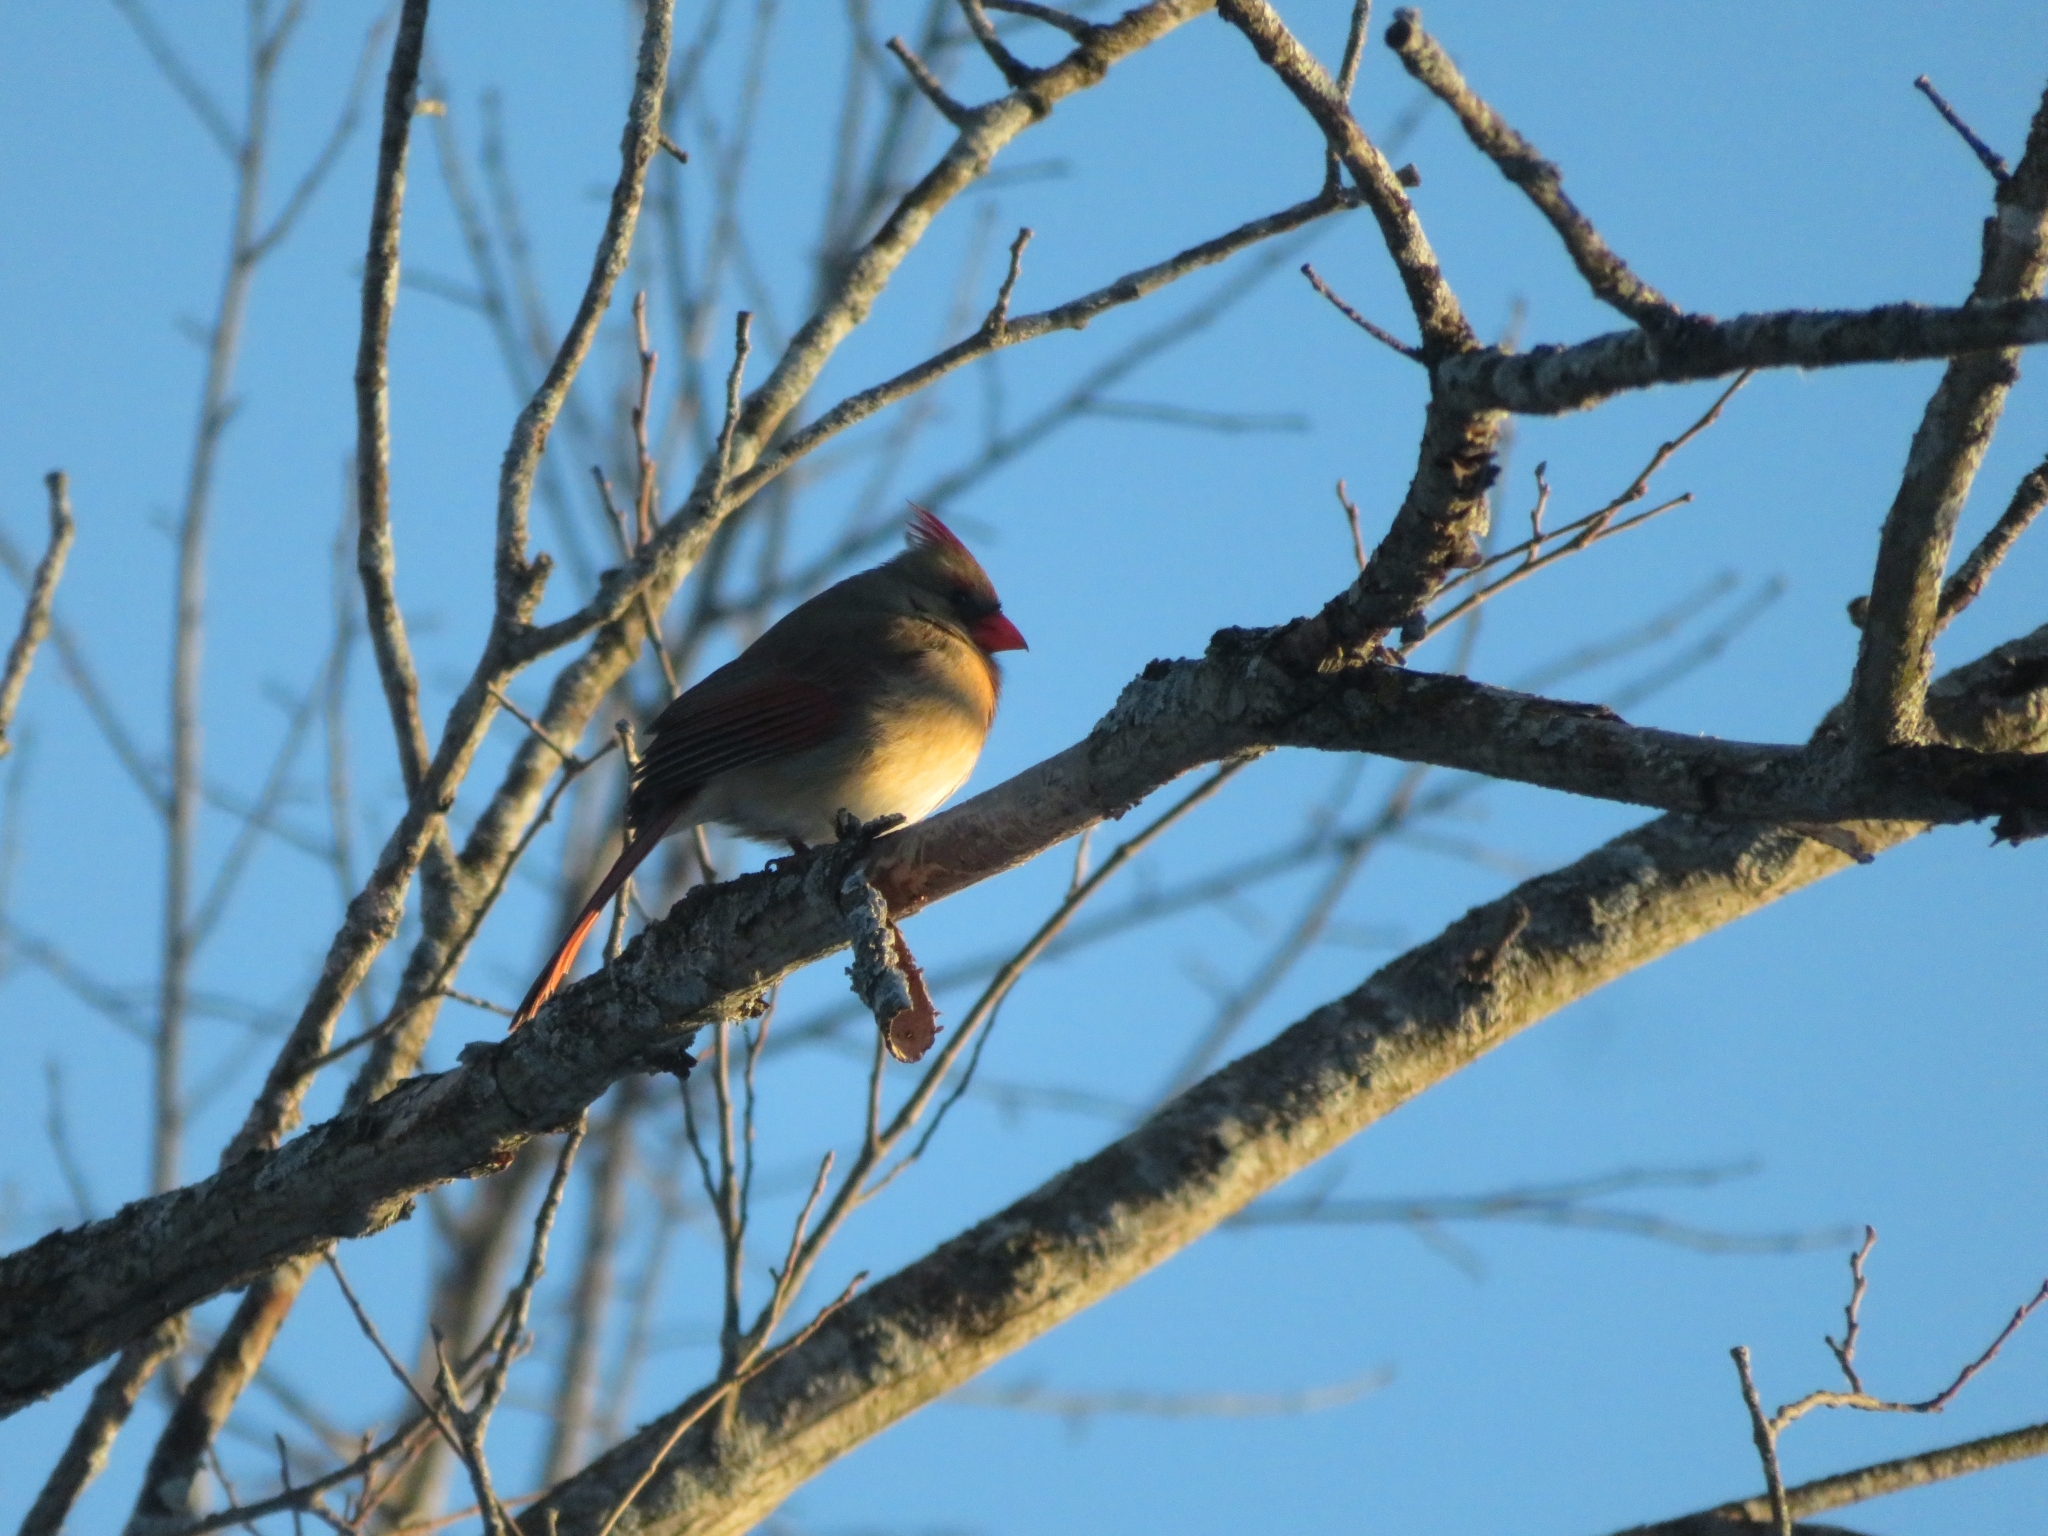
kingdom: Animalia
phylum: Chordata
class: Aves
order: Passeriformes
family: Cardinalidae
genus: Cardinalis
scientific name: Cardinalis cardinalis
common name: Northern cardinal
